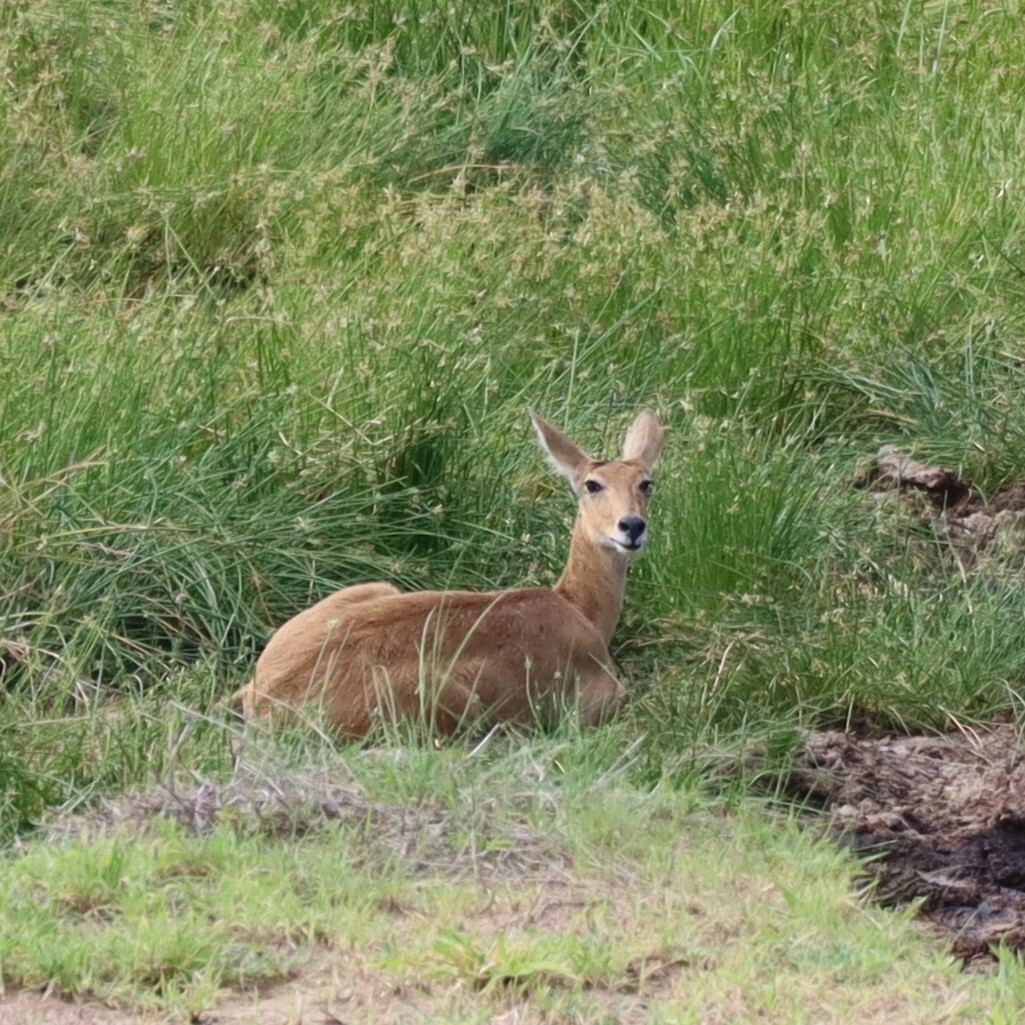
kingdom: Animalia
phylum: Chordata
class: Mammalia
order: Artiodactyla
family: Bovidae
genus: Redunca
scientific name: Redunca redunca
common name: Common reedbuck
